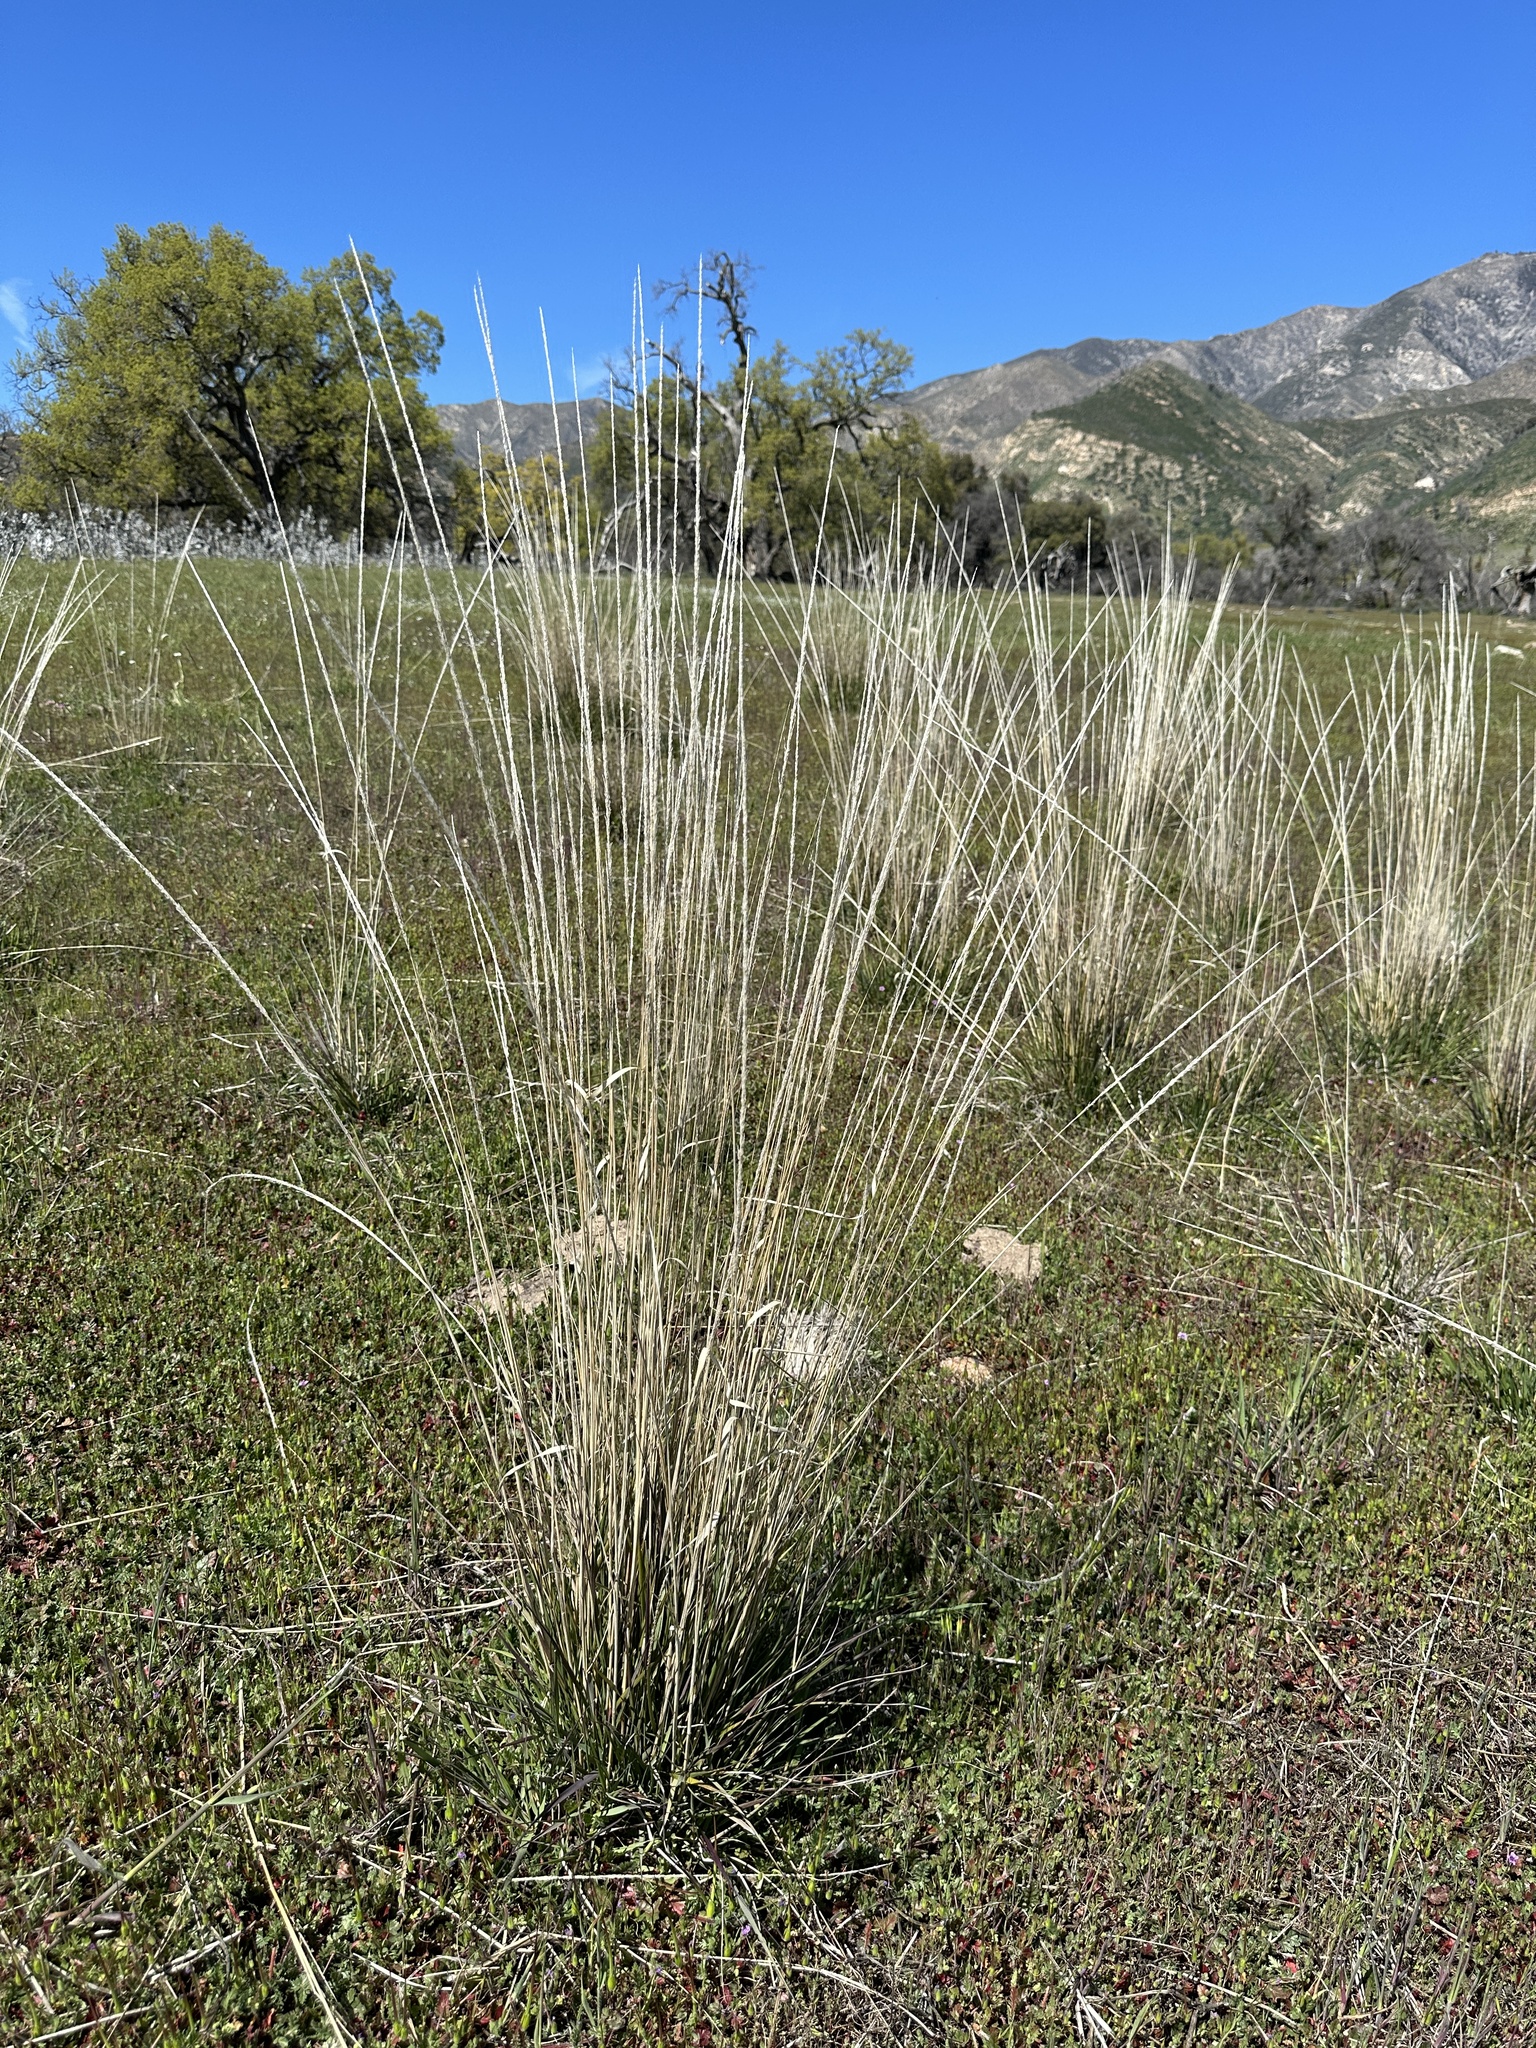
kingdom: Plantae
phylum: Tracheophyta
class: Liliopsida
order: Poales
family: Poaceae
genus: Muhlenbergia
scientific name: Muhlenbergia rigens
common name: Deer grass
